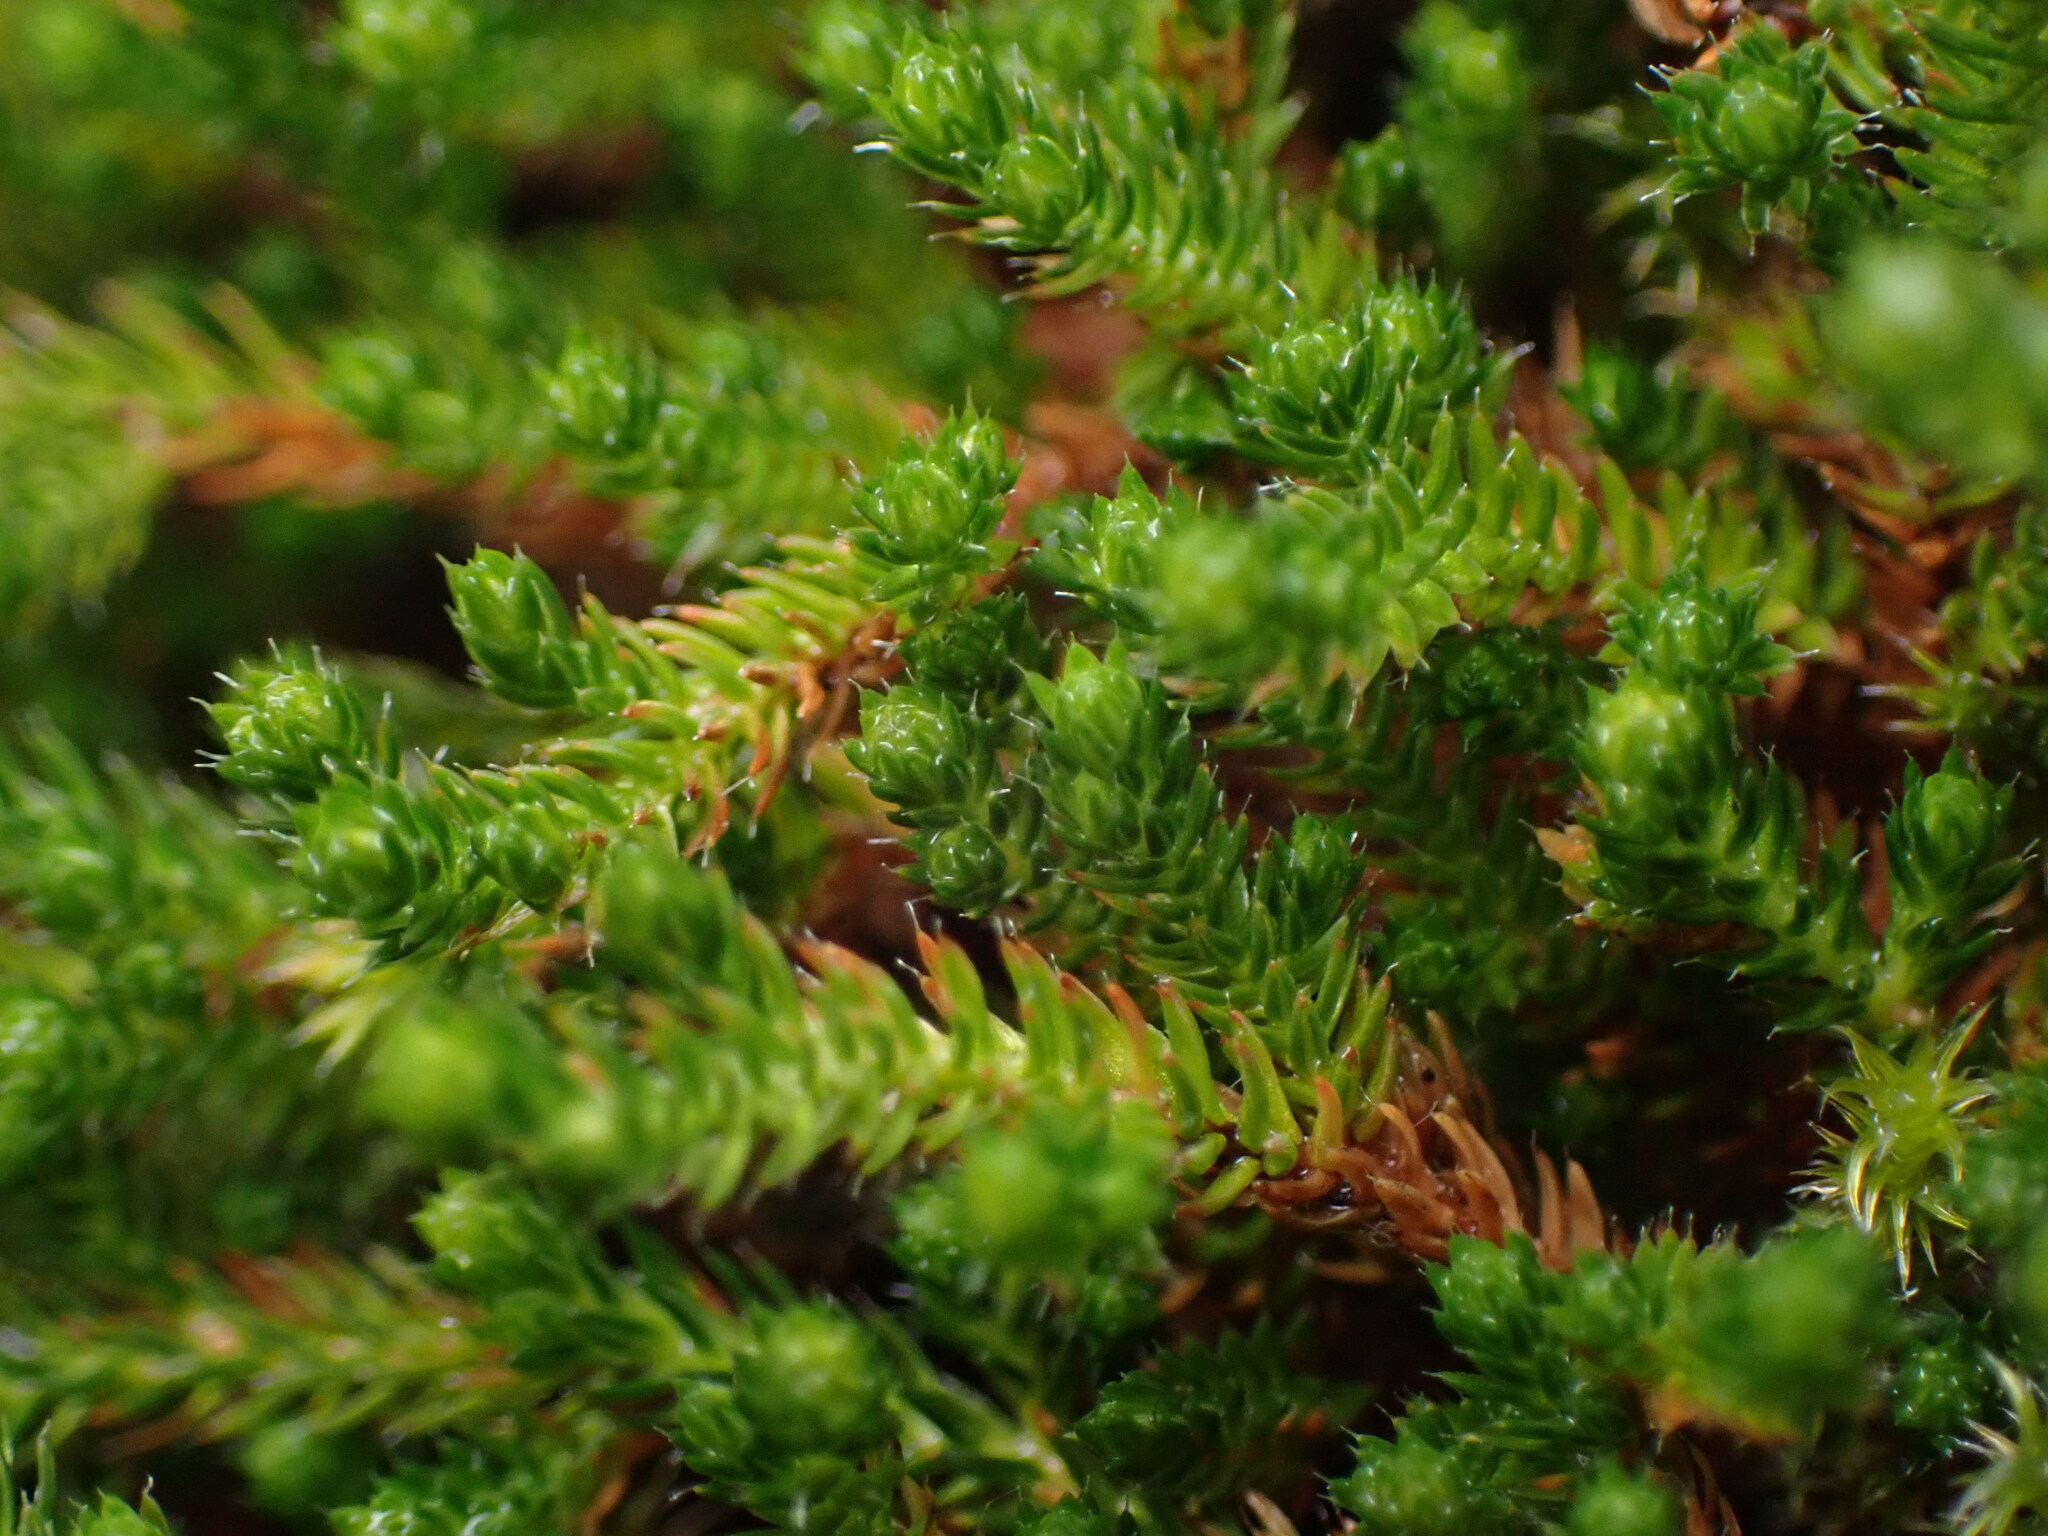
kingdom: Plantae
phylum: Tracheophyta
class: Lycopodiopsida
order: Selaginellales
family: Selaginellaceae
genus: Selaginella
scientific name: Selaginella wallacei
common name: Wallace's selaginella
